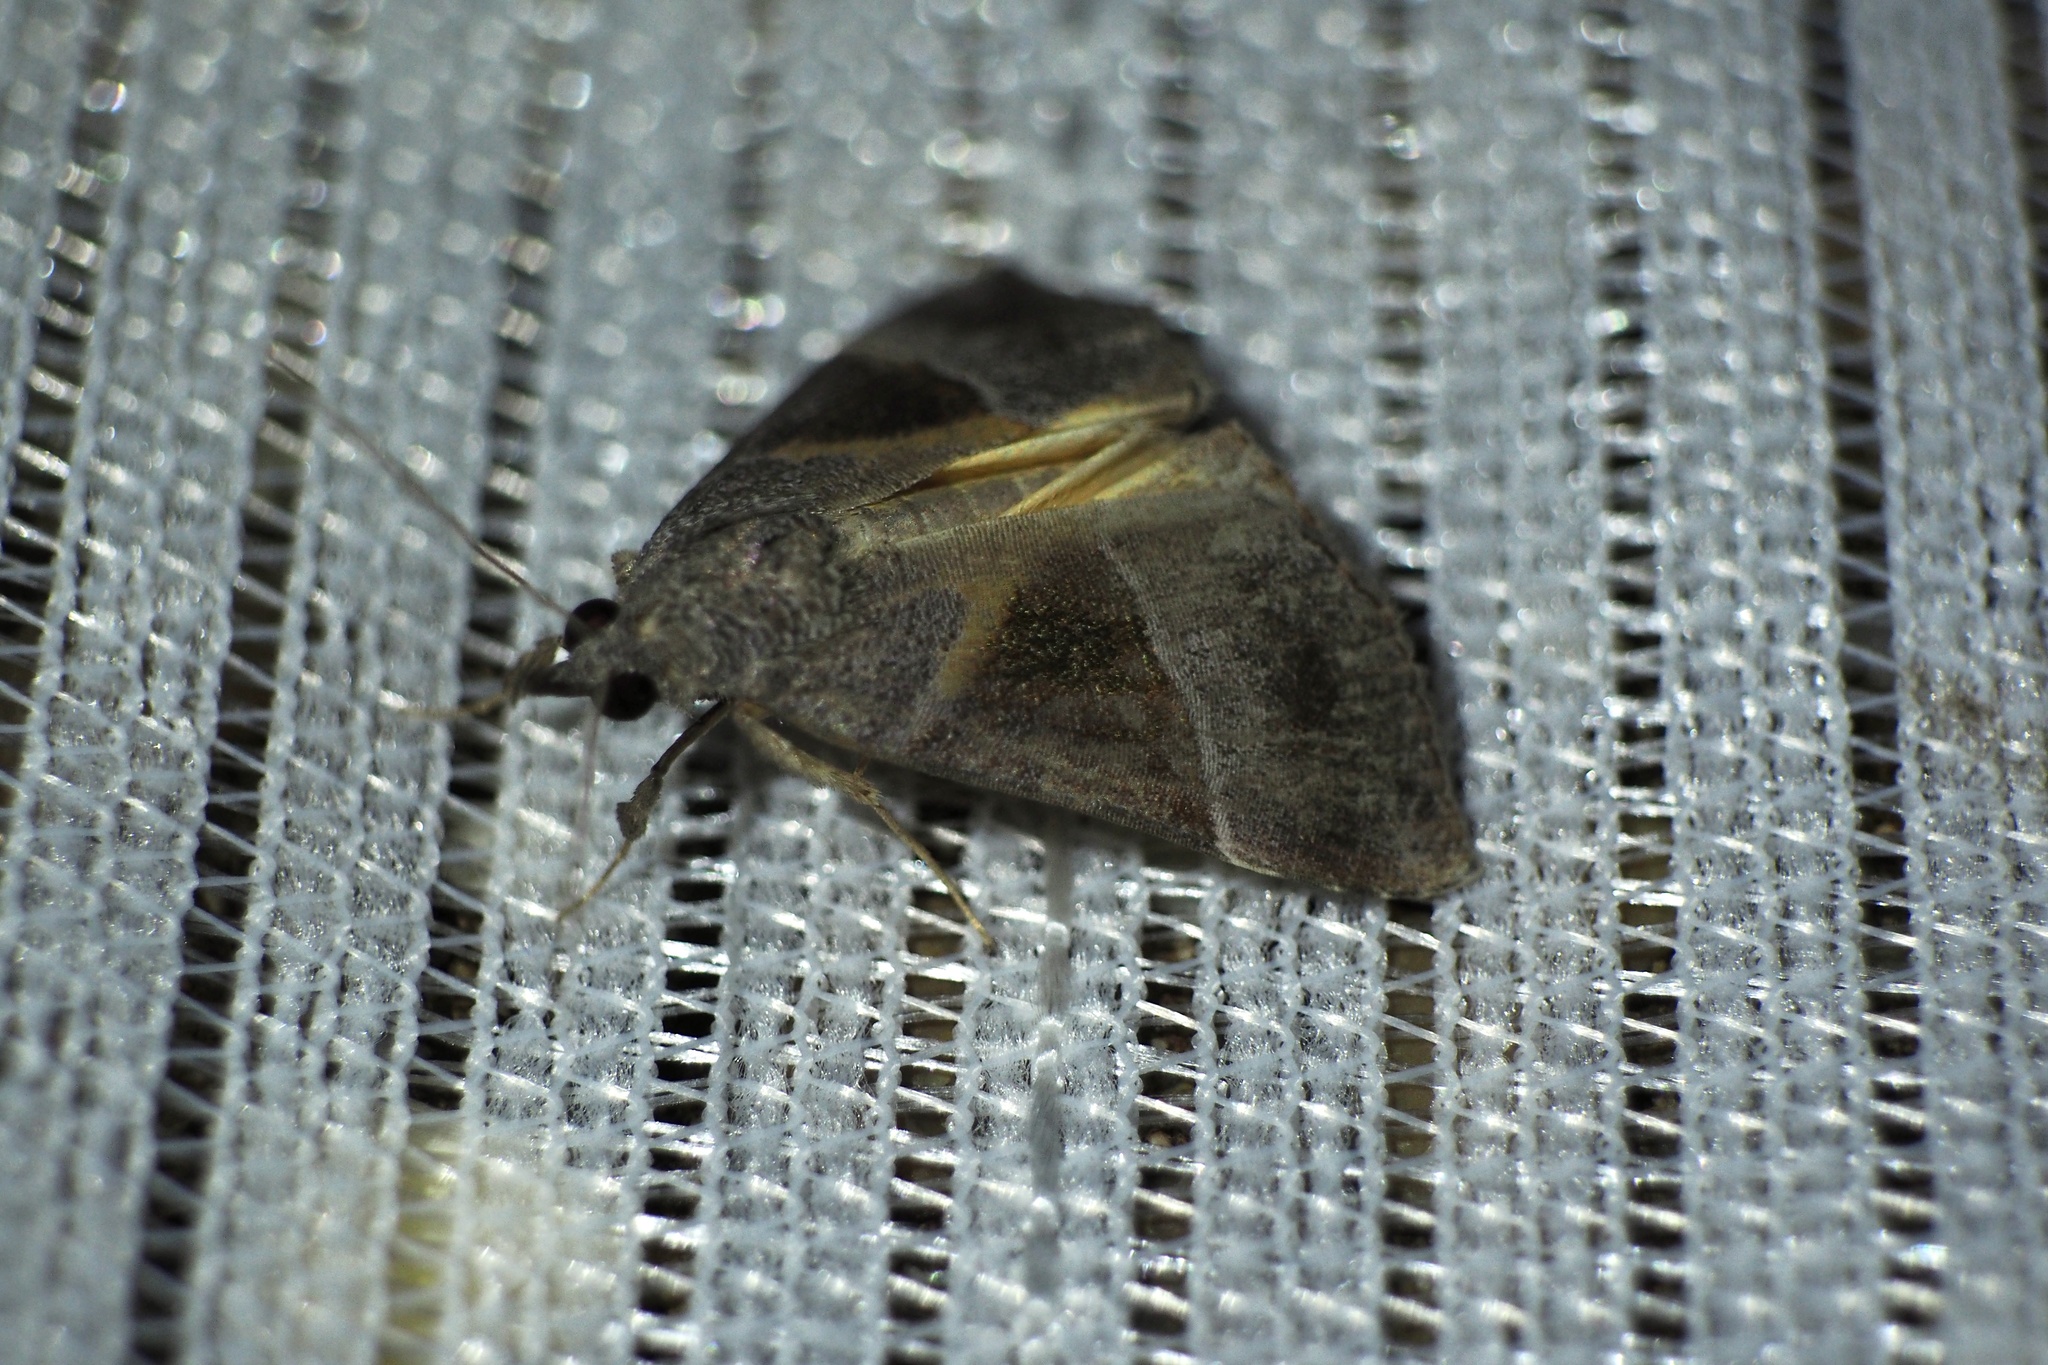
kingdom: Animalia
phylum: Arthropoda
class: Insecta
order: Lepidoptera
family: Erebidae
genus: Hypena
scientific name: Hypena trigonalis
